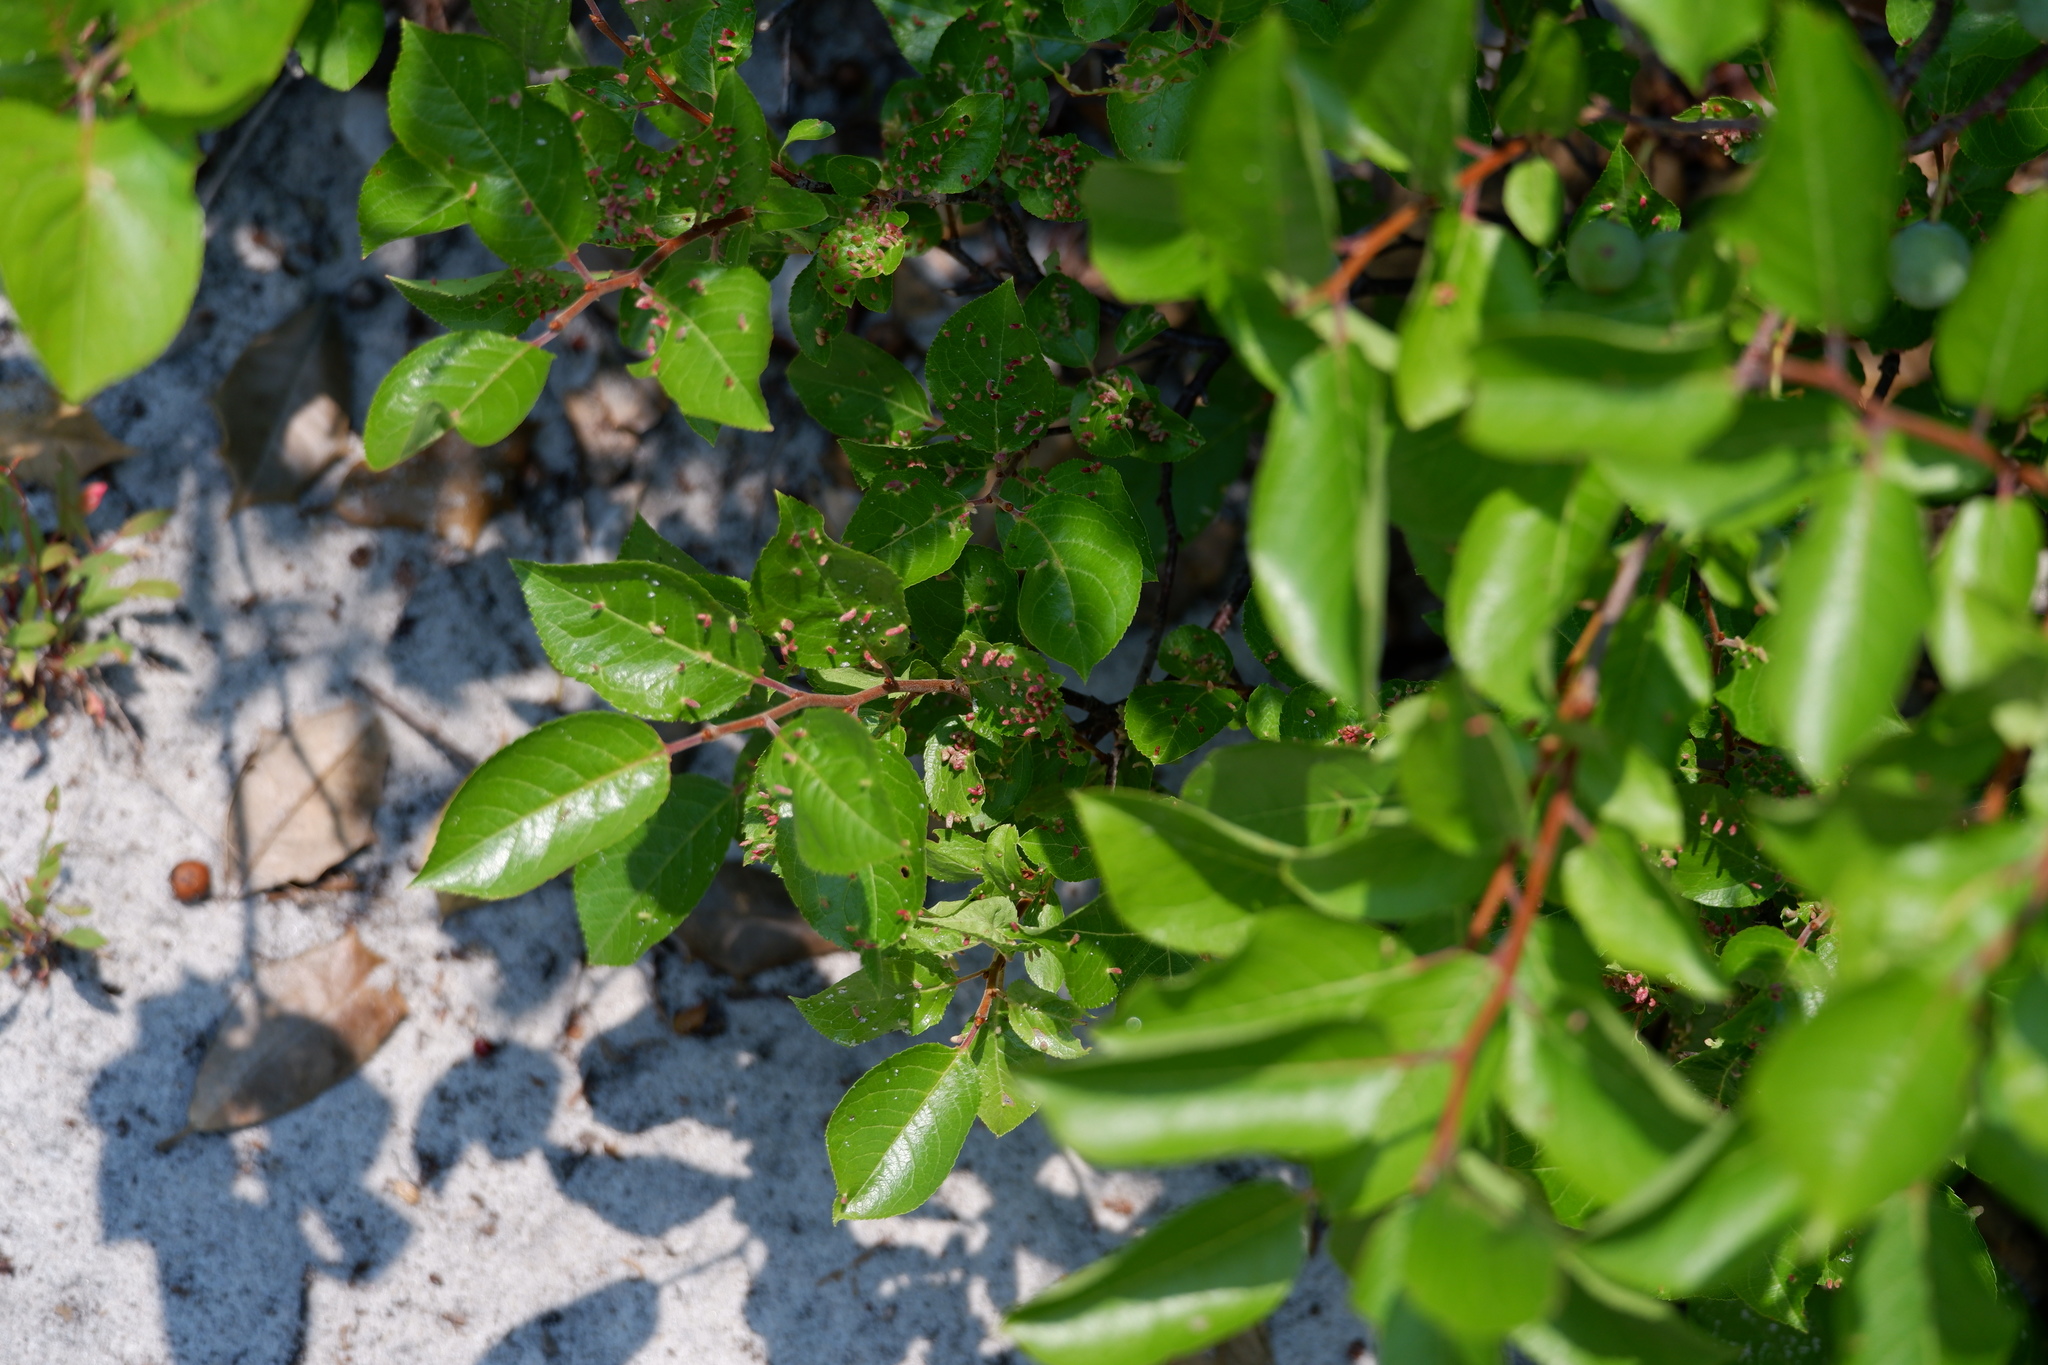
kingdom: Animalia
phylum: Arthropoda
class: Arachnida
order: Trombidiformes
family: Eriophyidae
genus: Eriophyes
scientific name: Eriophyes emarginatae
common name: Plum leaf gall mite
